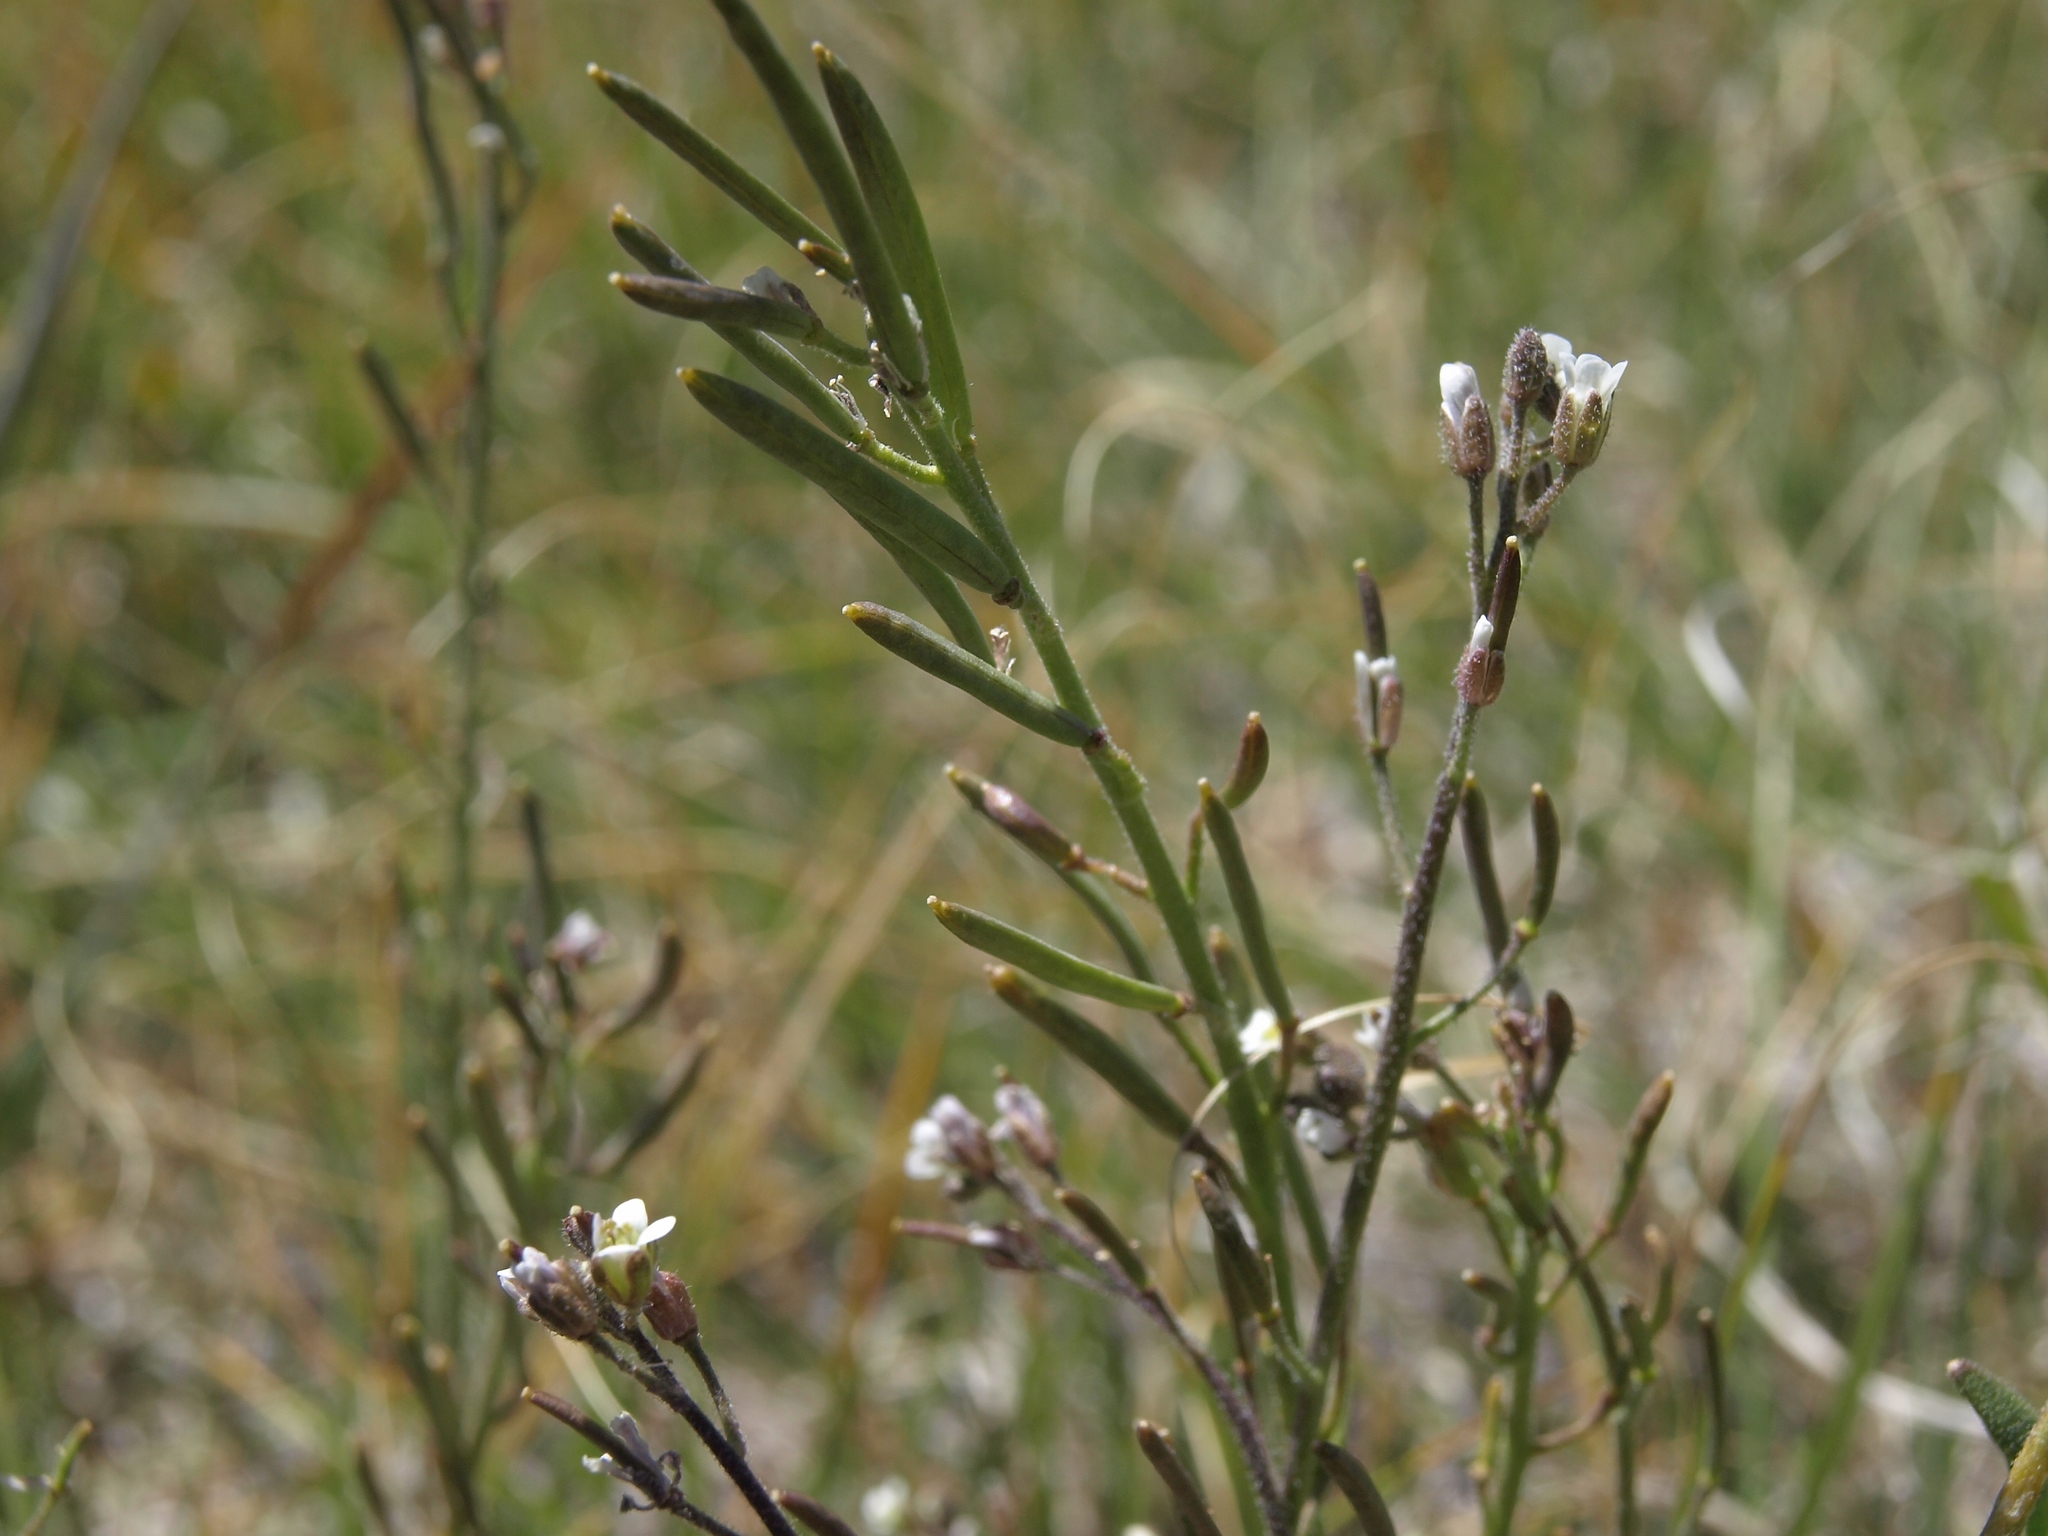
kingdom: Plantae
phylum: Tracheophyta
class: Magnoliopsida
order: Brassicales
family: Brassicaceae
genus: Crucihimalaya
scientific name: Crucihimalaya virgata
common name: Rod halimolobos
